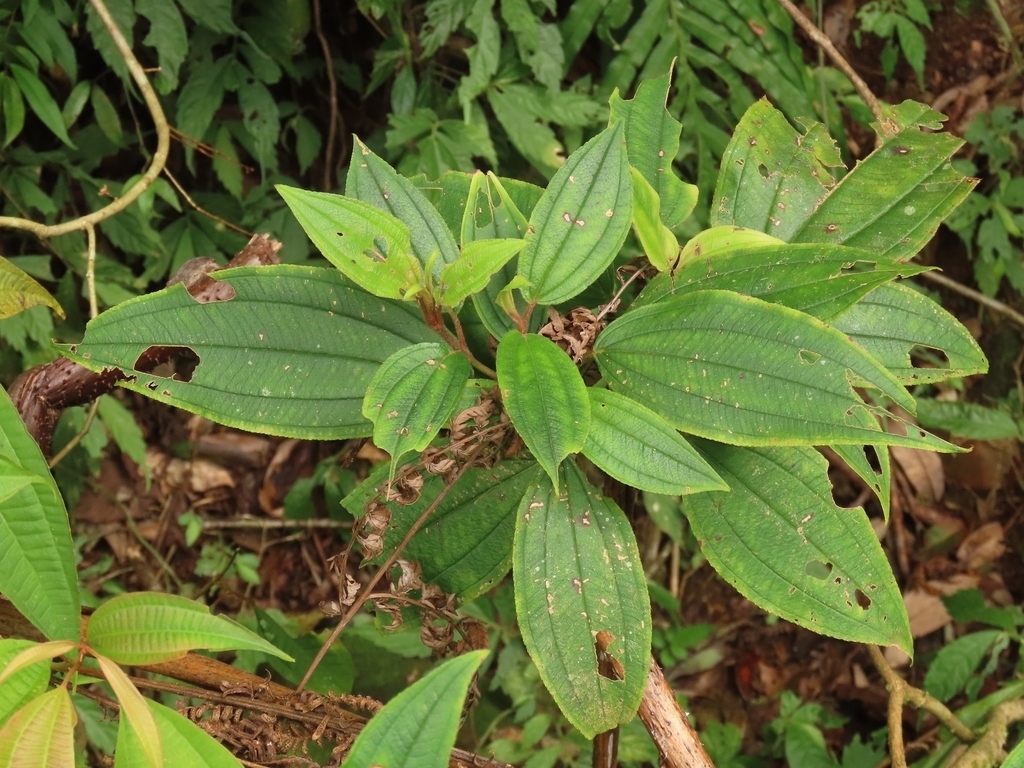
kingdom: Plantae
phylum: Tracheophyta
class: Magnoliopsida
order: Myrtales
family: Melastomataceae
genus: Melastoma
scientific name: Melastoma malabathricum
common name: Indian-rhododendron
